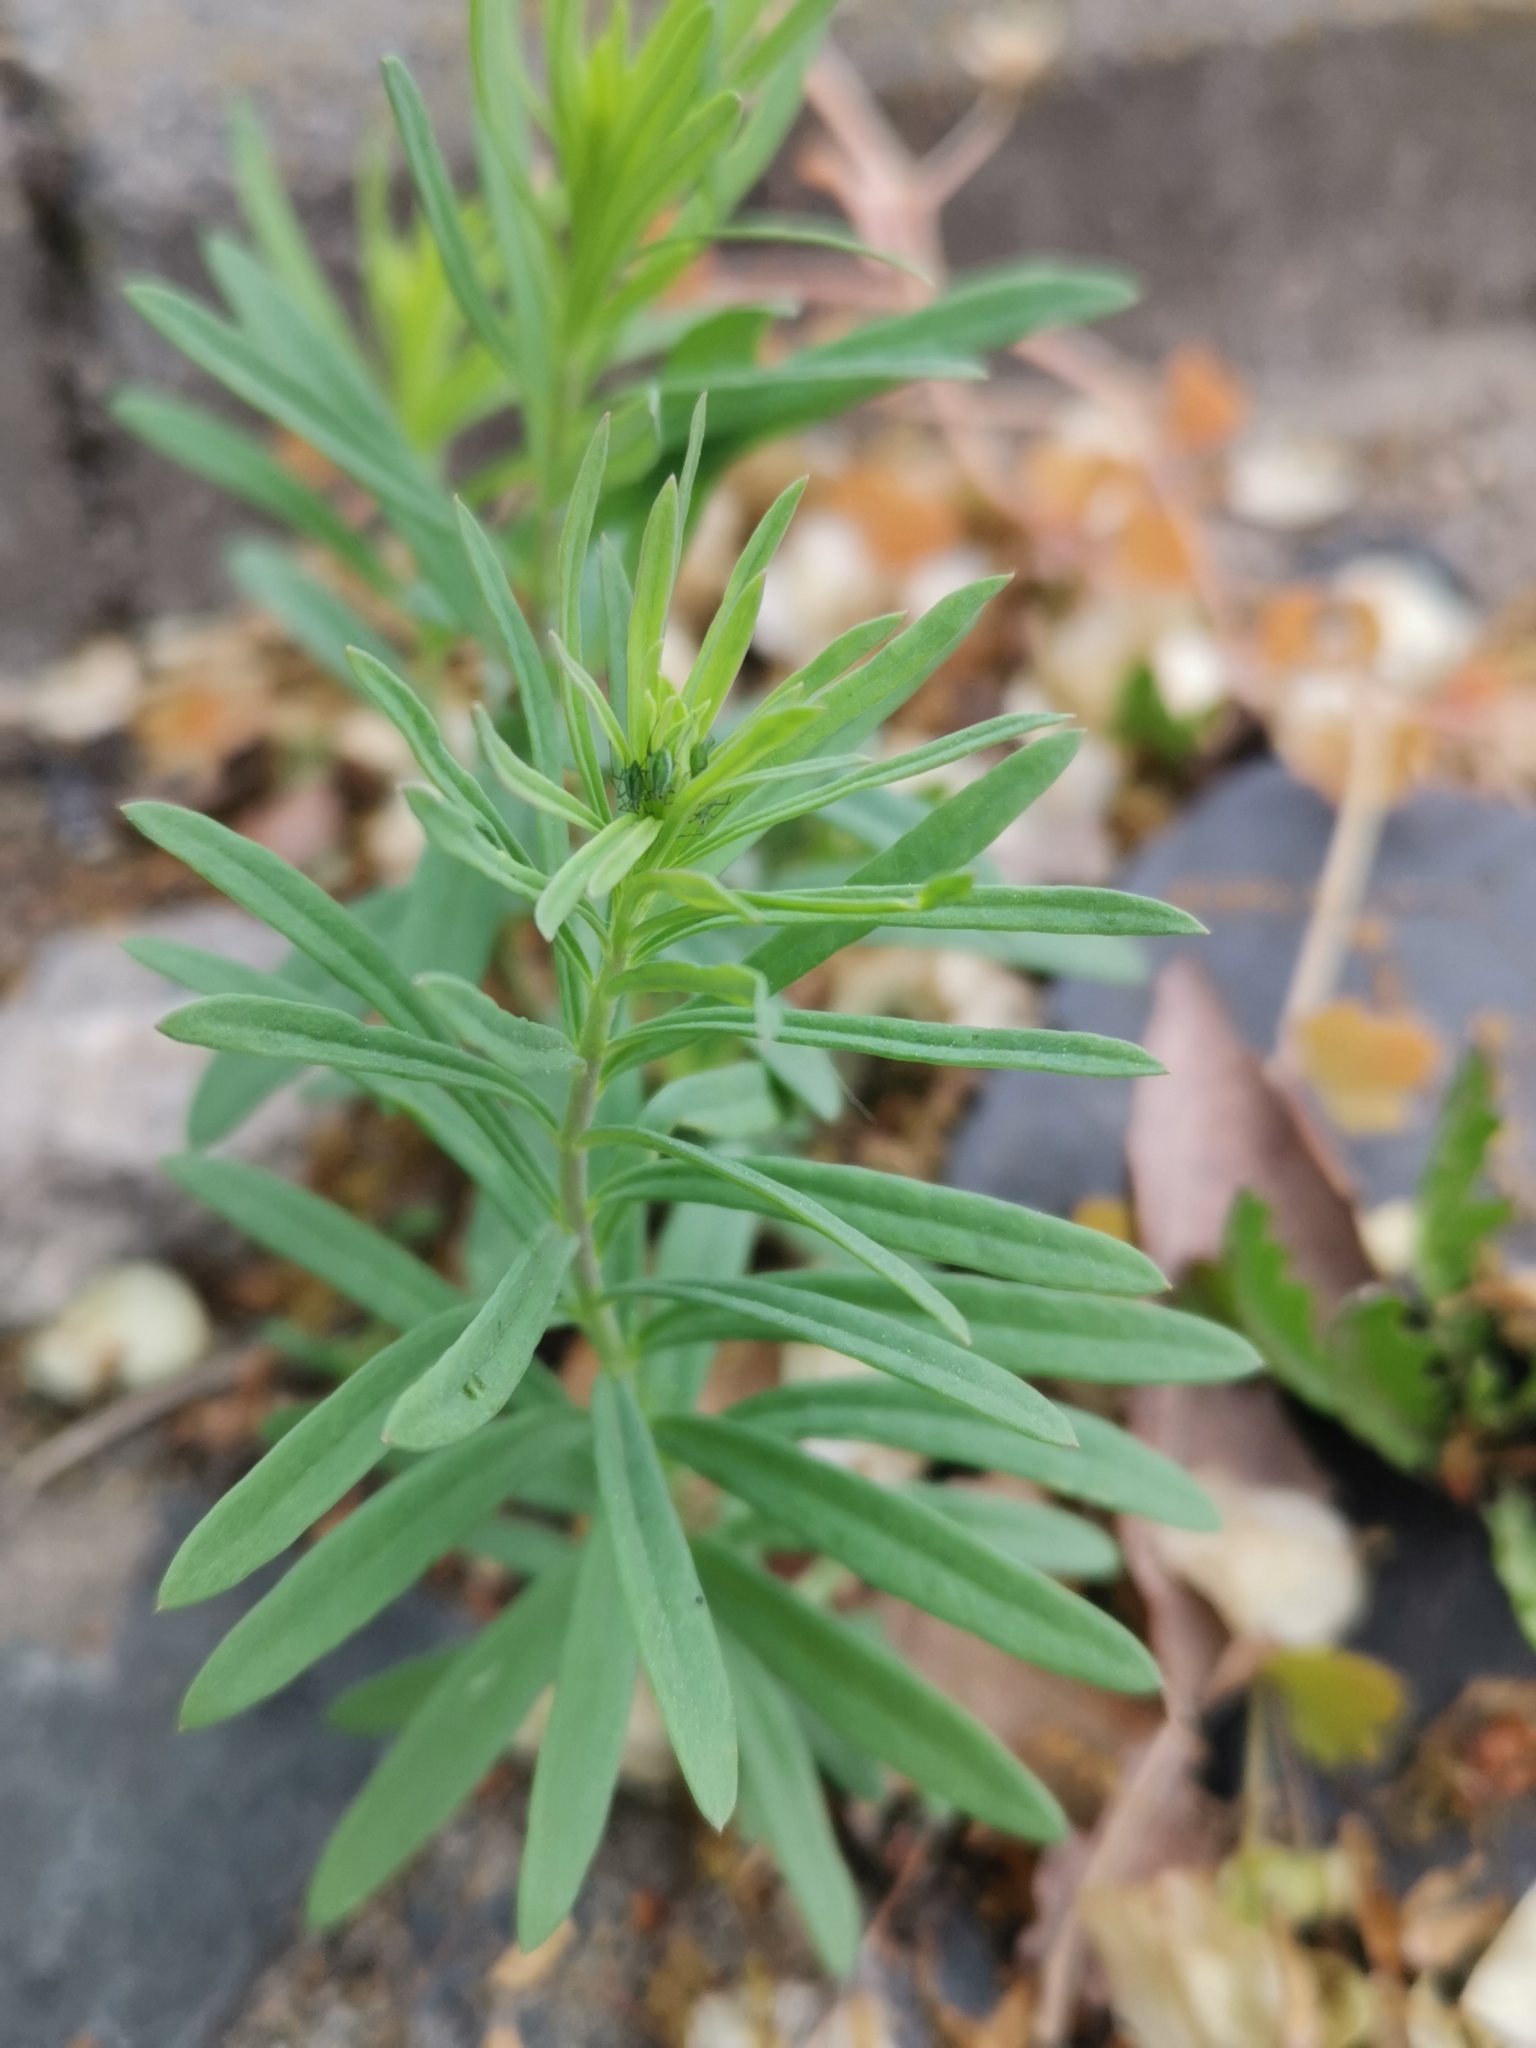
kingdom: Plantae
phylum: Tracheophyta
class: Magnoliopsida
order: Lamiales
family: Plantaginaceae
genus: Linaria
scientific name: Linaria vulgaris
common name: Butter and eggs
